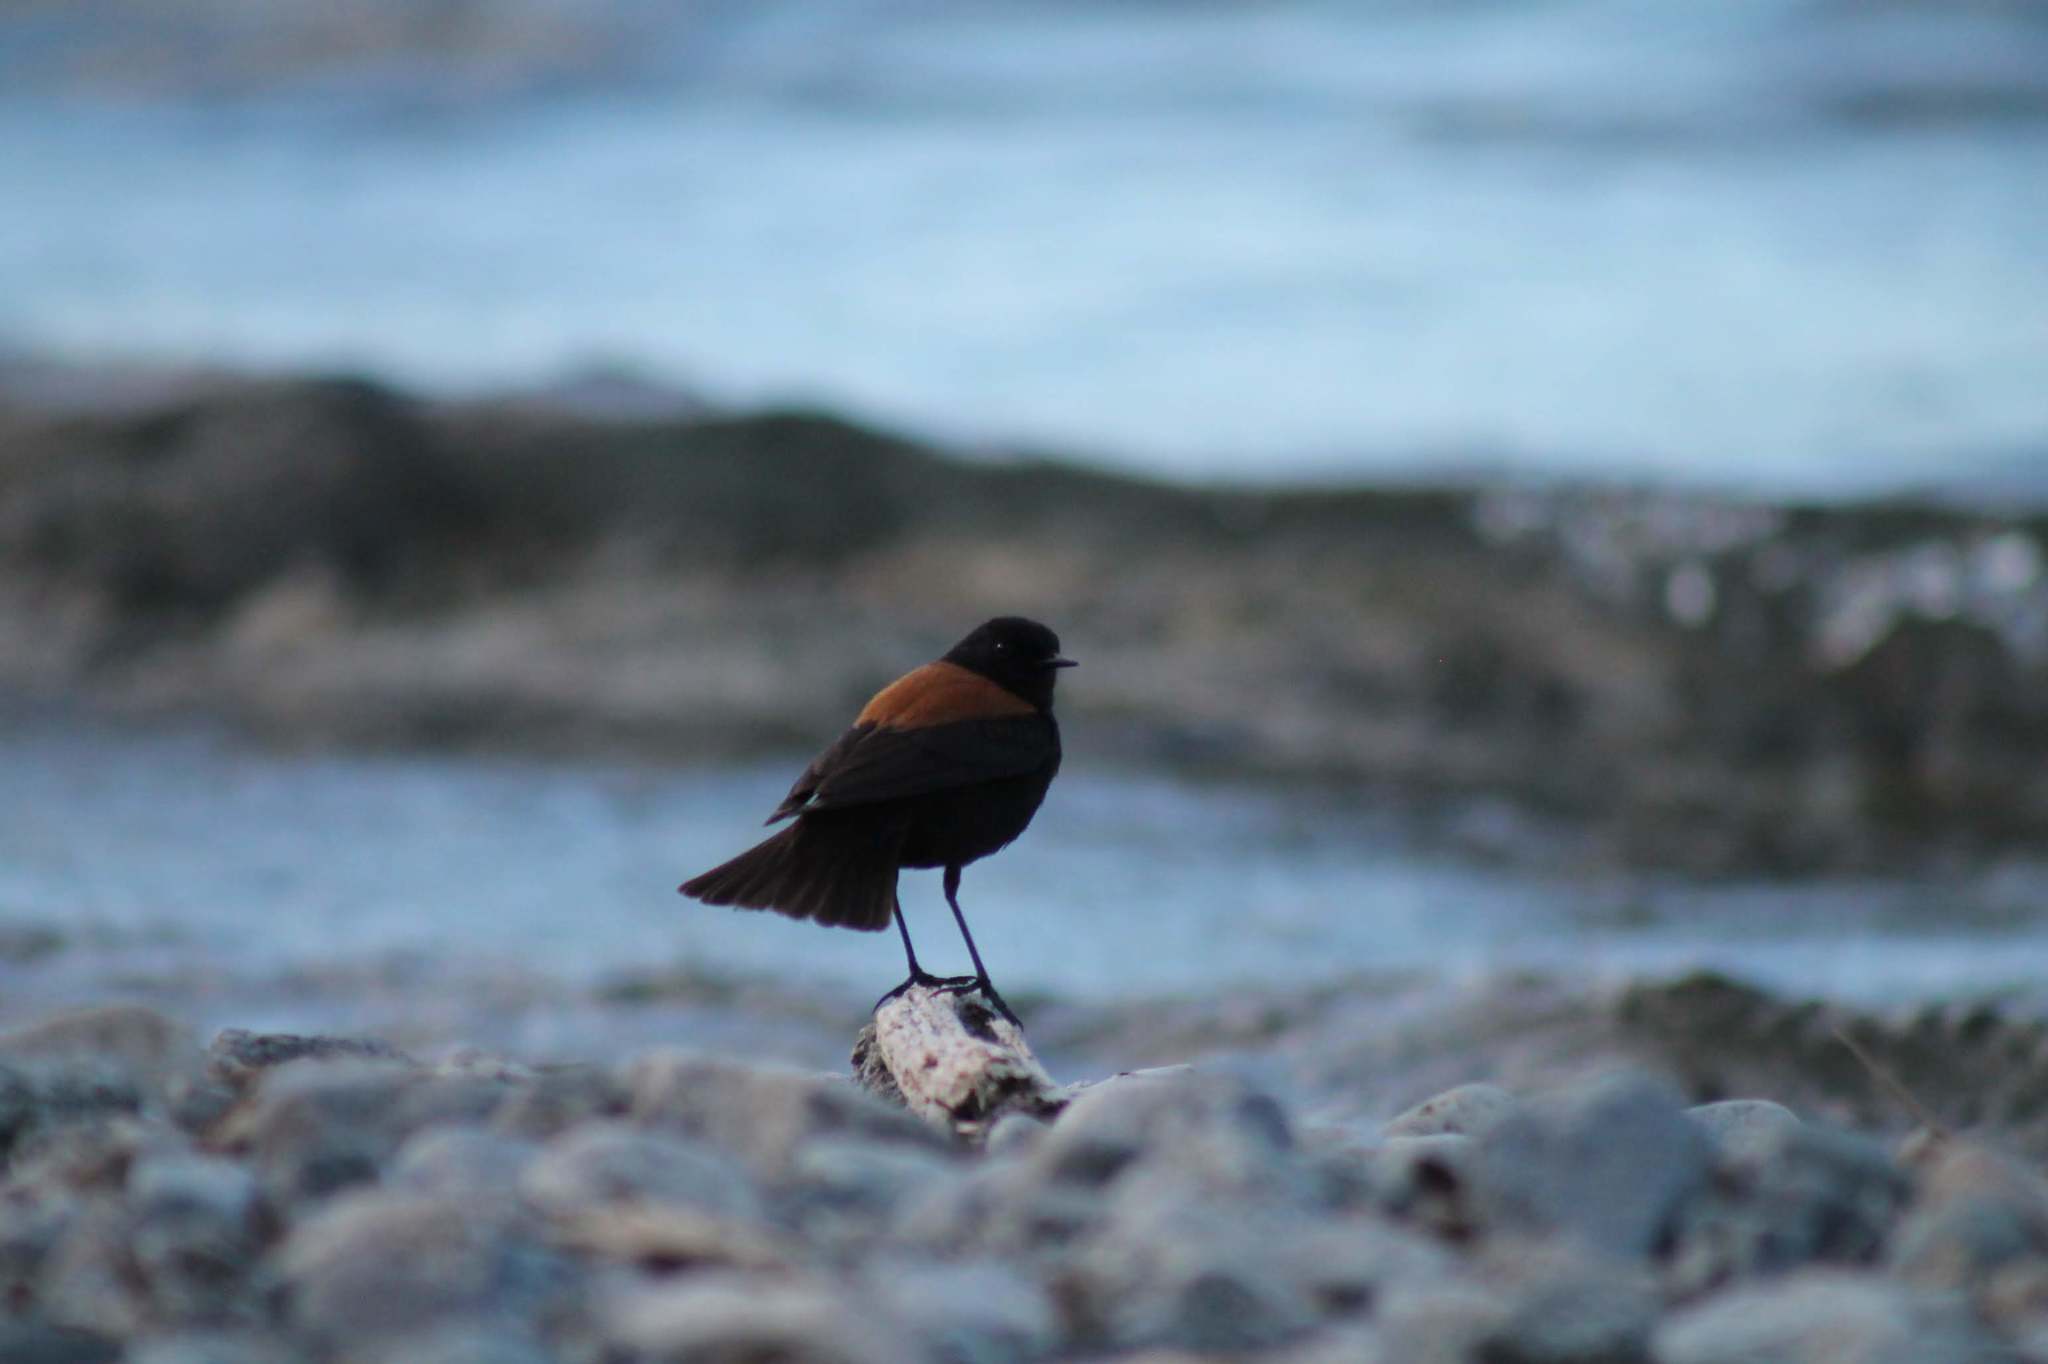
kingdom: Animalia
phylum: Chordata
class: Aves
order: Passeriformes
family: Tyrannidae
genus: Lessonia
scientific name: Lessonia rufa
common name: Austral negrito
